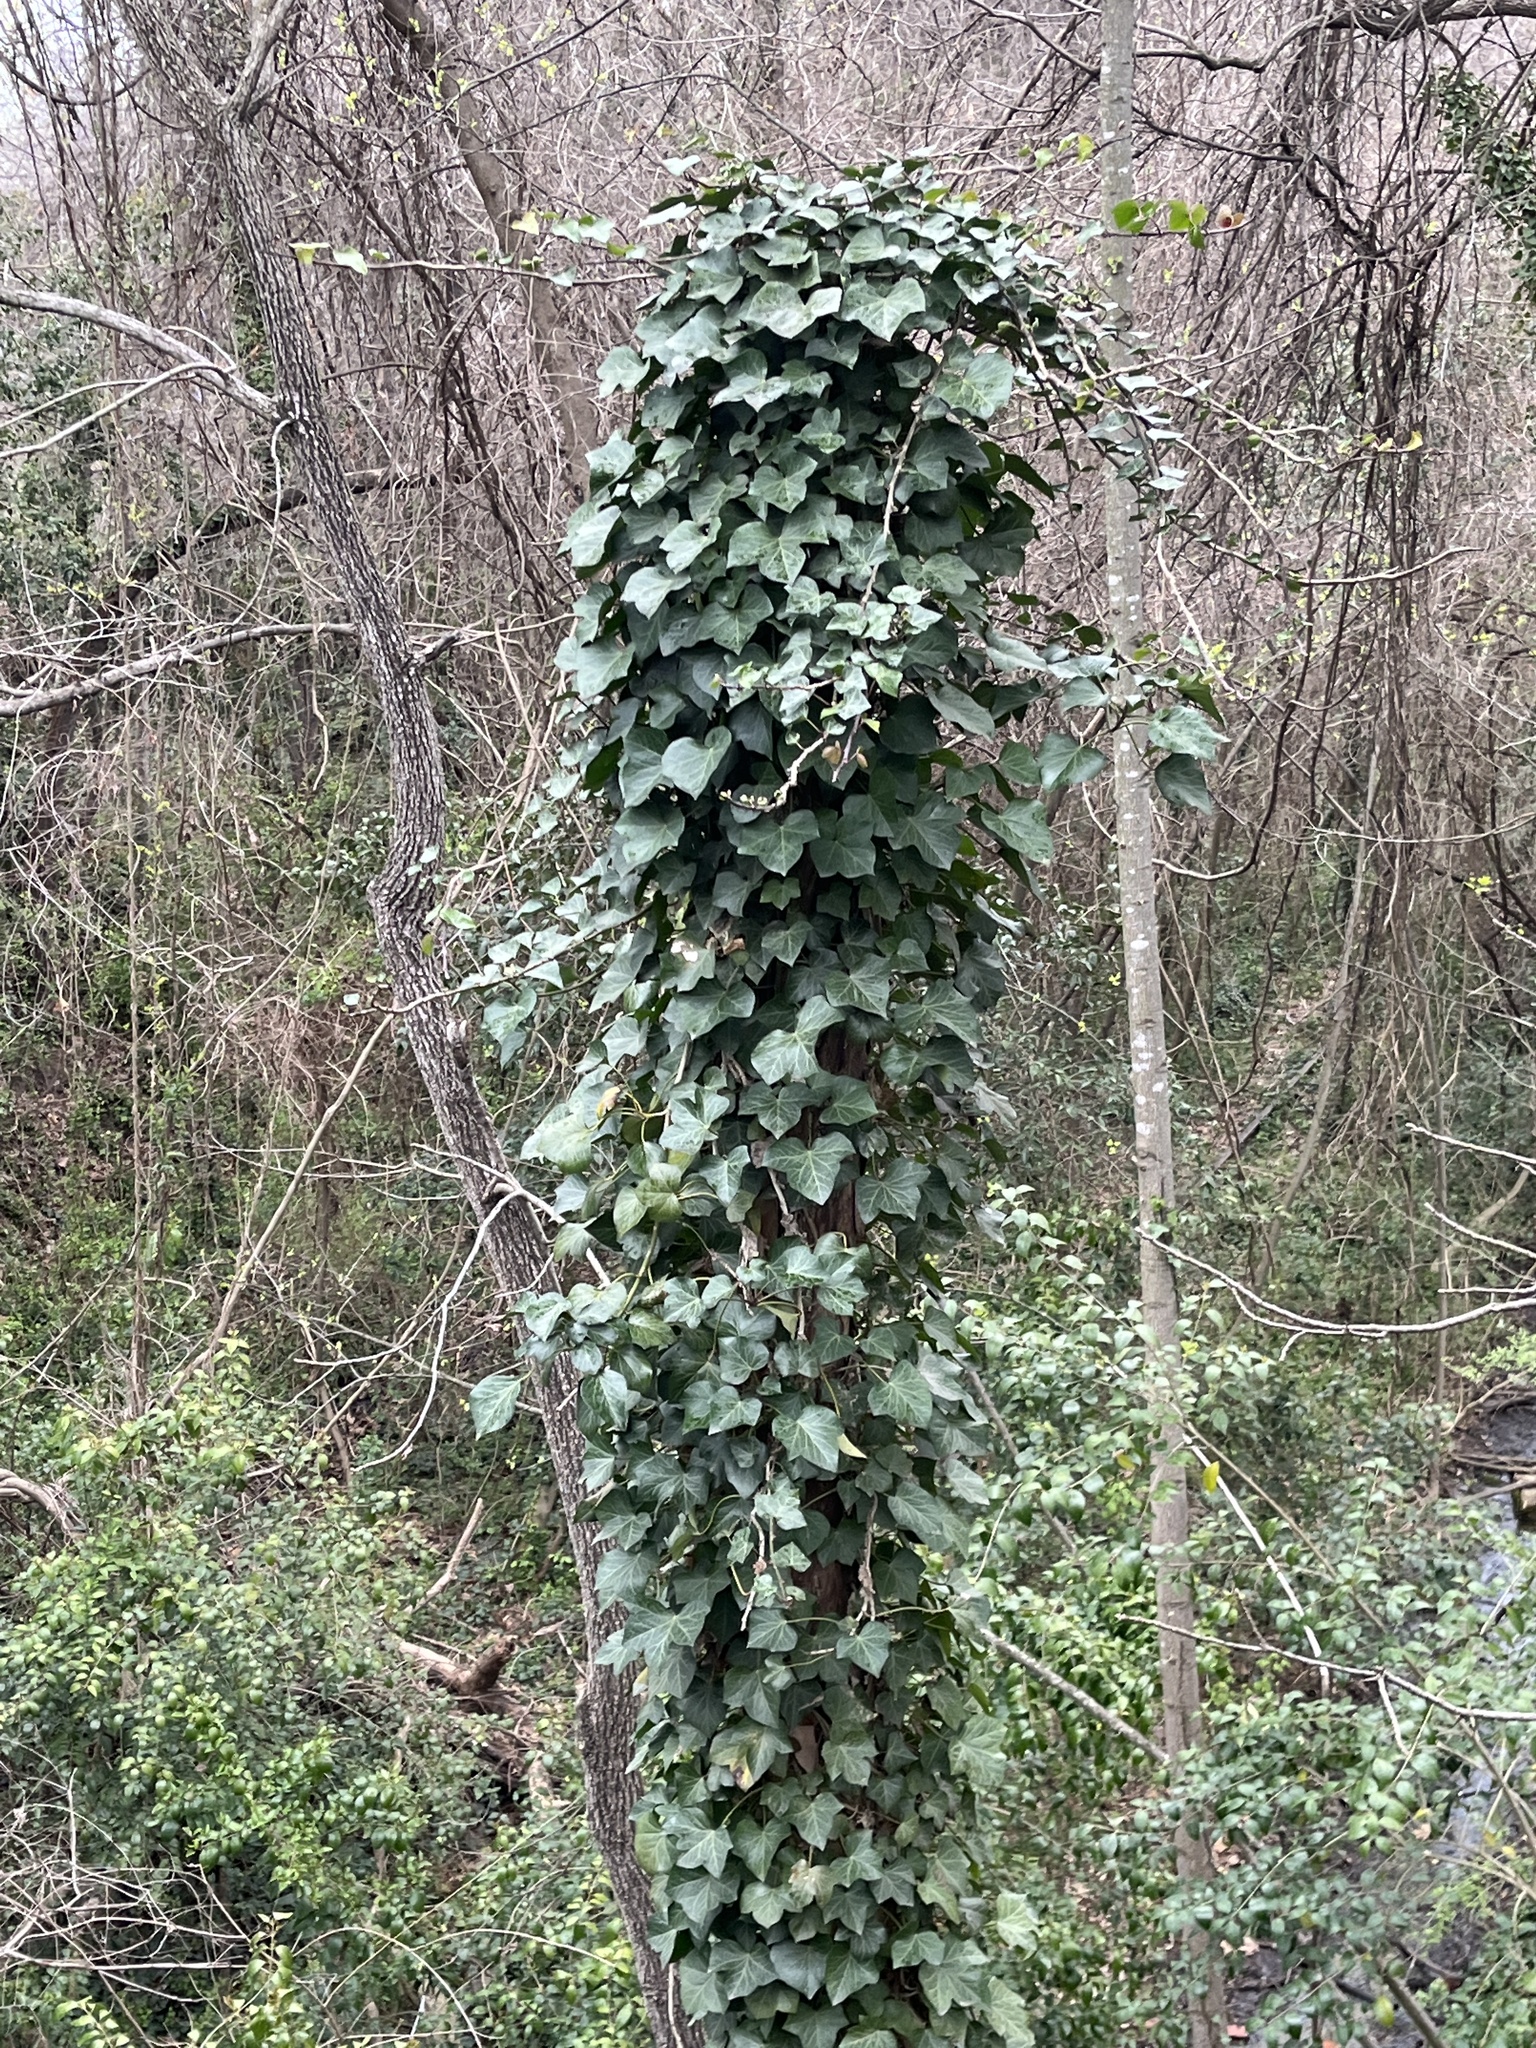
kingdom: Plantae
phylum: Tracheophyta
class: Magnoliopsida
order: Apiales
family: Araliaceae
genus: Hedera
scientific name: Hedera helix
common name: Ivy
